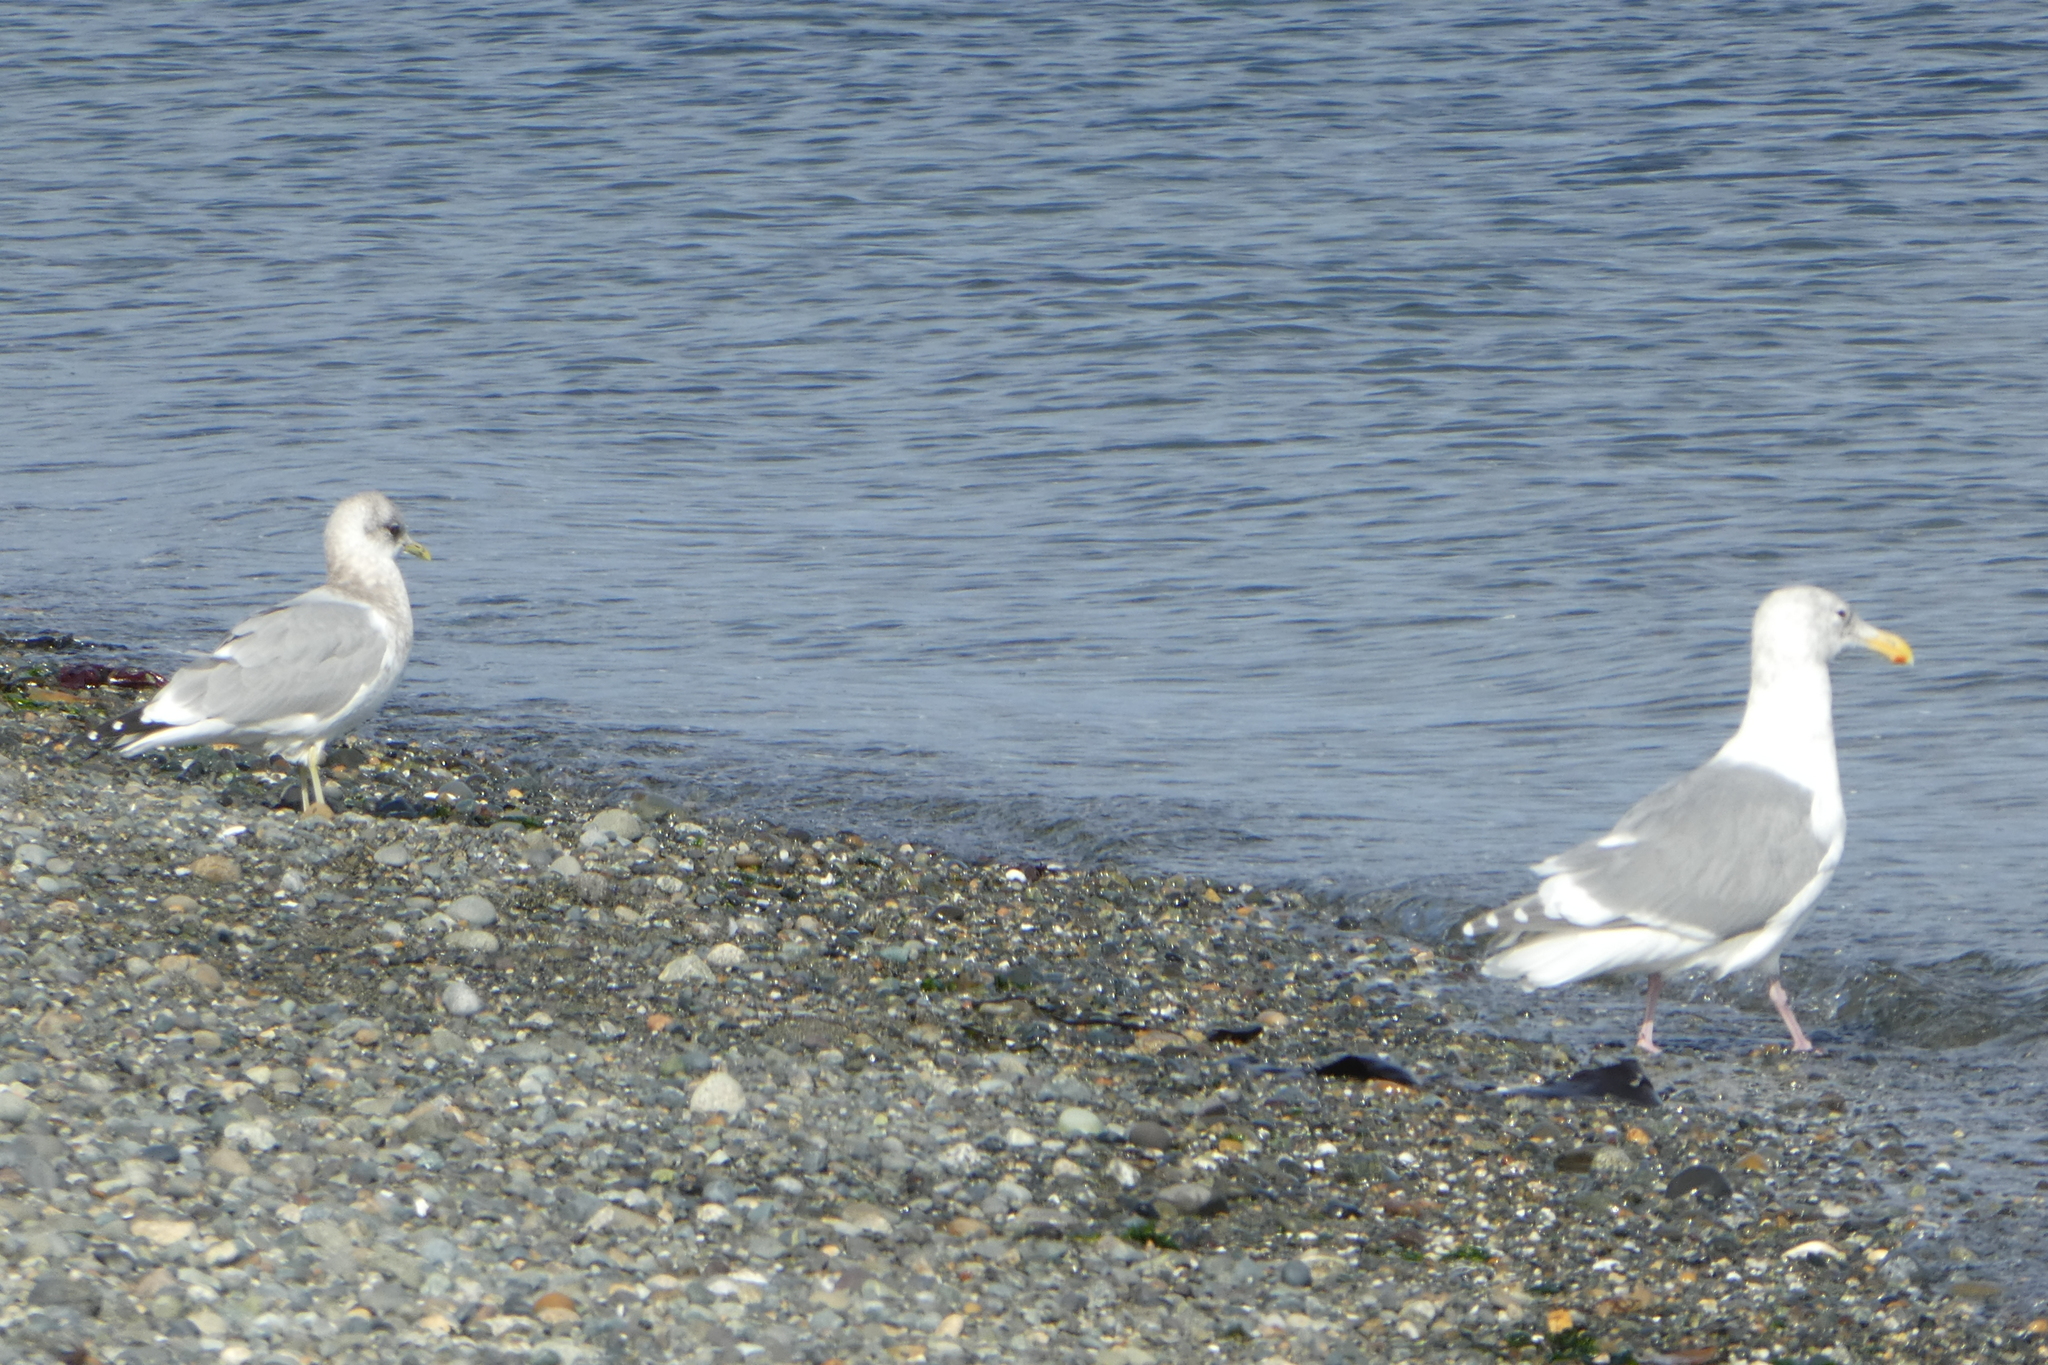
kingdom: Animalia
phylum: Chordata
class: Aves
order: Charadriiformes
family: Laridae
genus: Larus
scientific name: Larus
